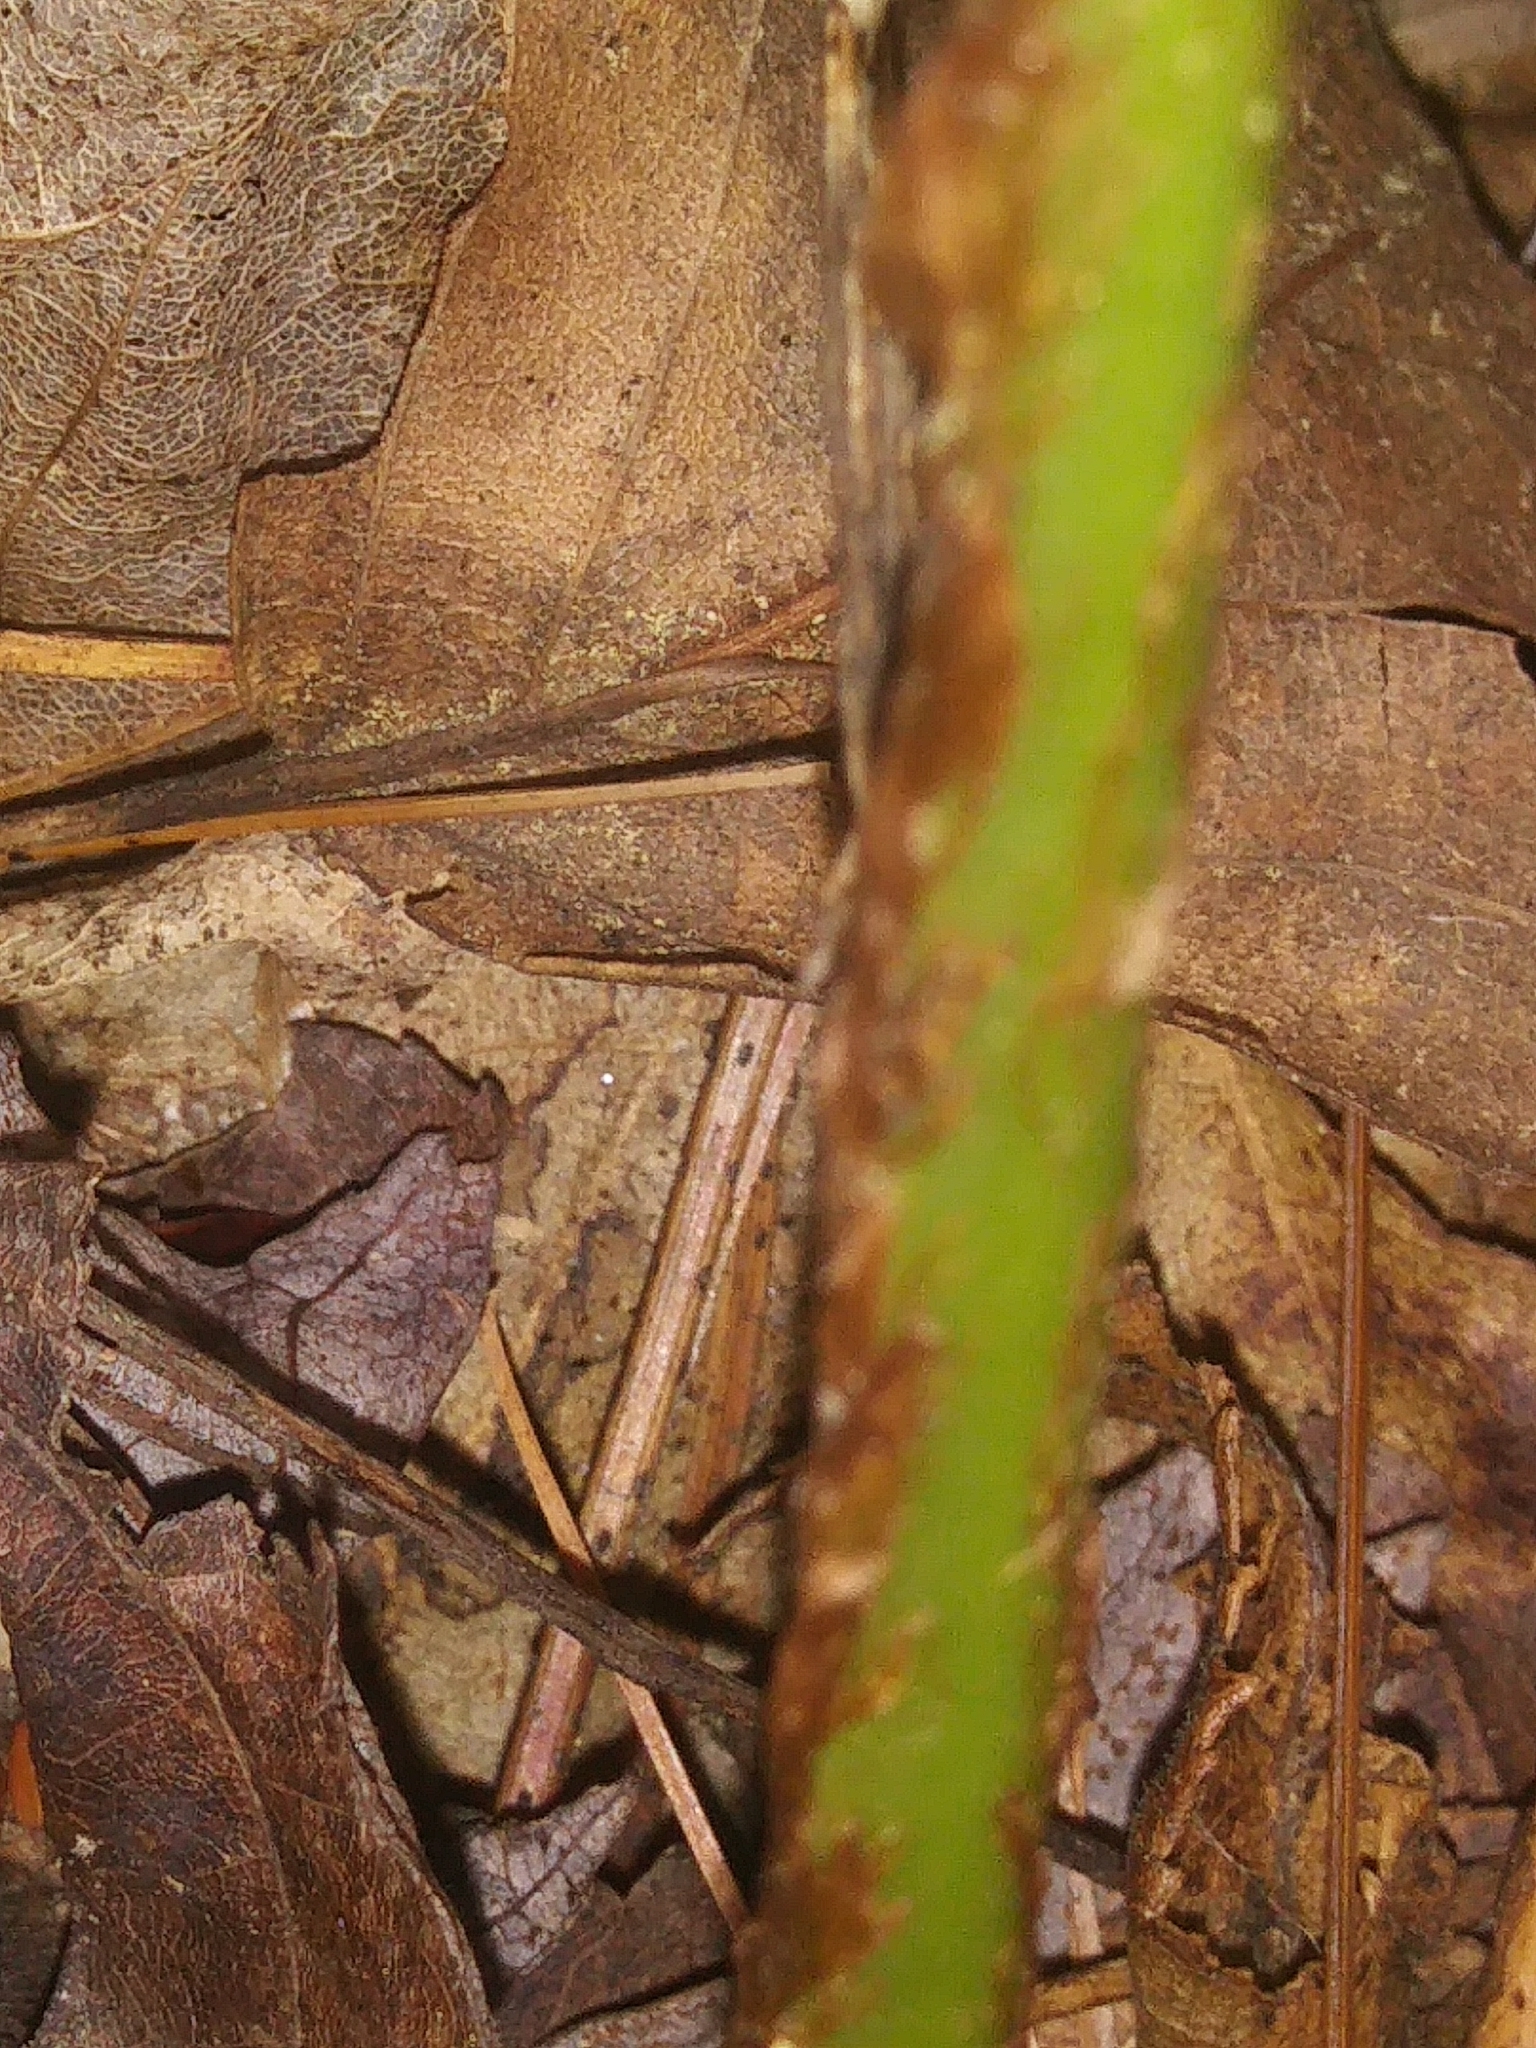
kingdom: Plantae
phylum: Tracheophyta
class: Polypodiopsida
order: Polypodiales
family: Dryopteridaceae
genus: Dryopteris
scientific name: Dryopteris marginalis
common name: Marginal wood fern
